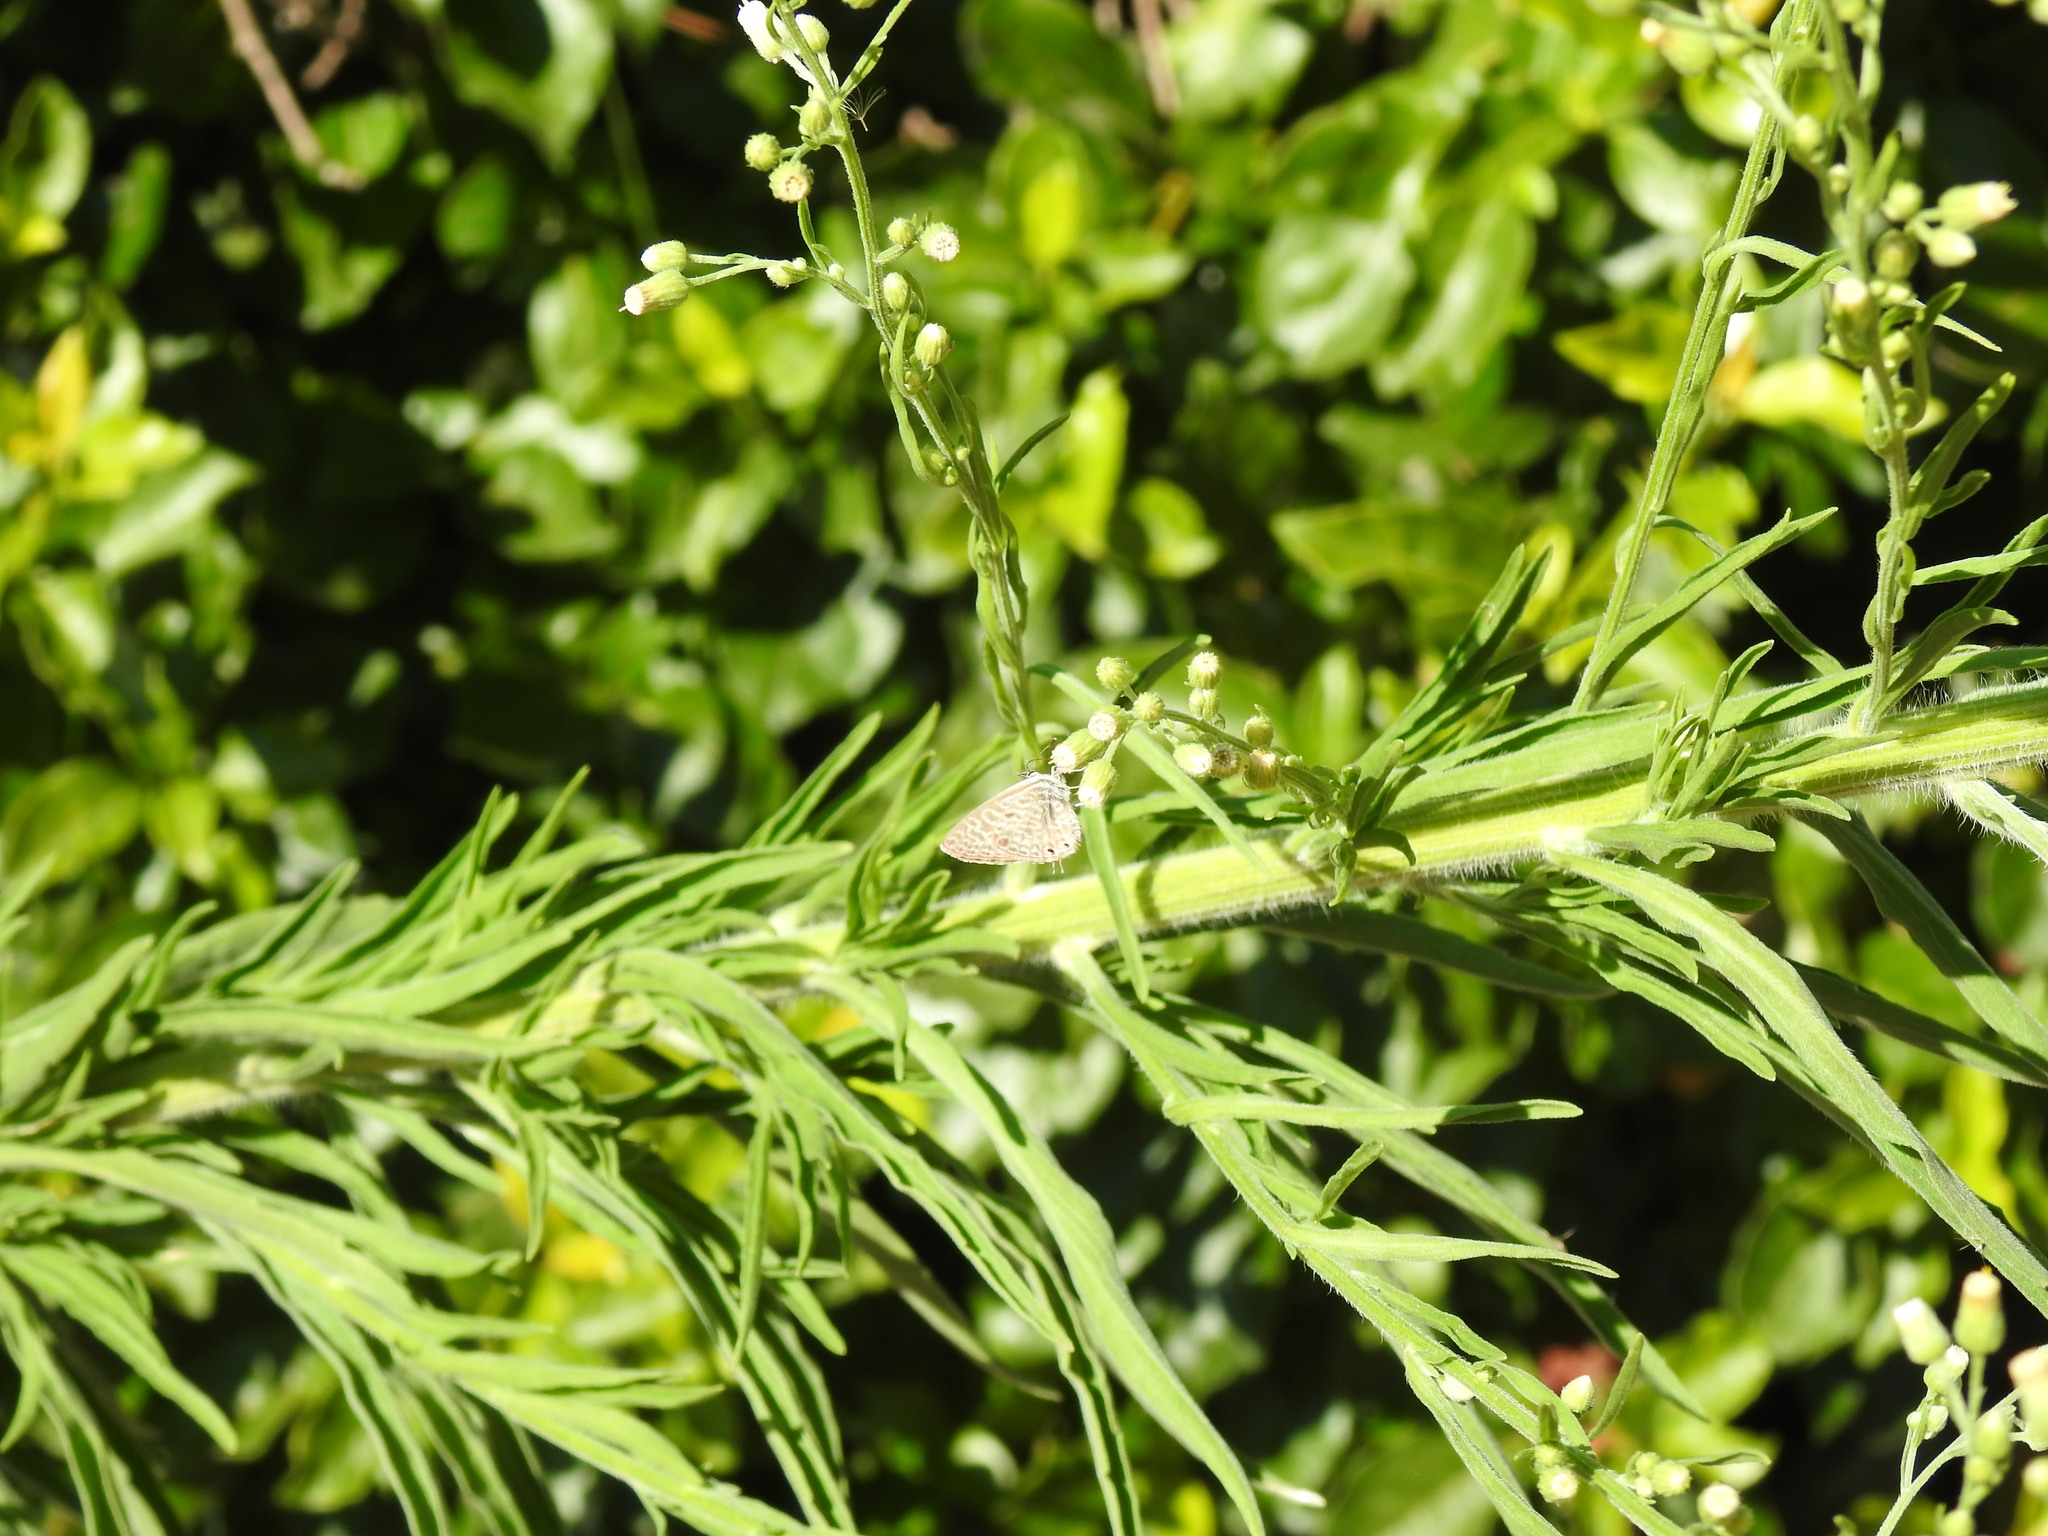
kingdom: Animalia
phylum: Arthropoda
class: Insecta
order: Lepidoptera
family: Lycaenidae
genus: Leptotes
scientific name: Leptotes pirithous
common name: Lang's short-tailed blue
